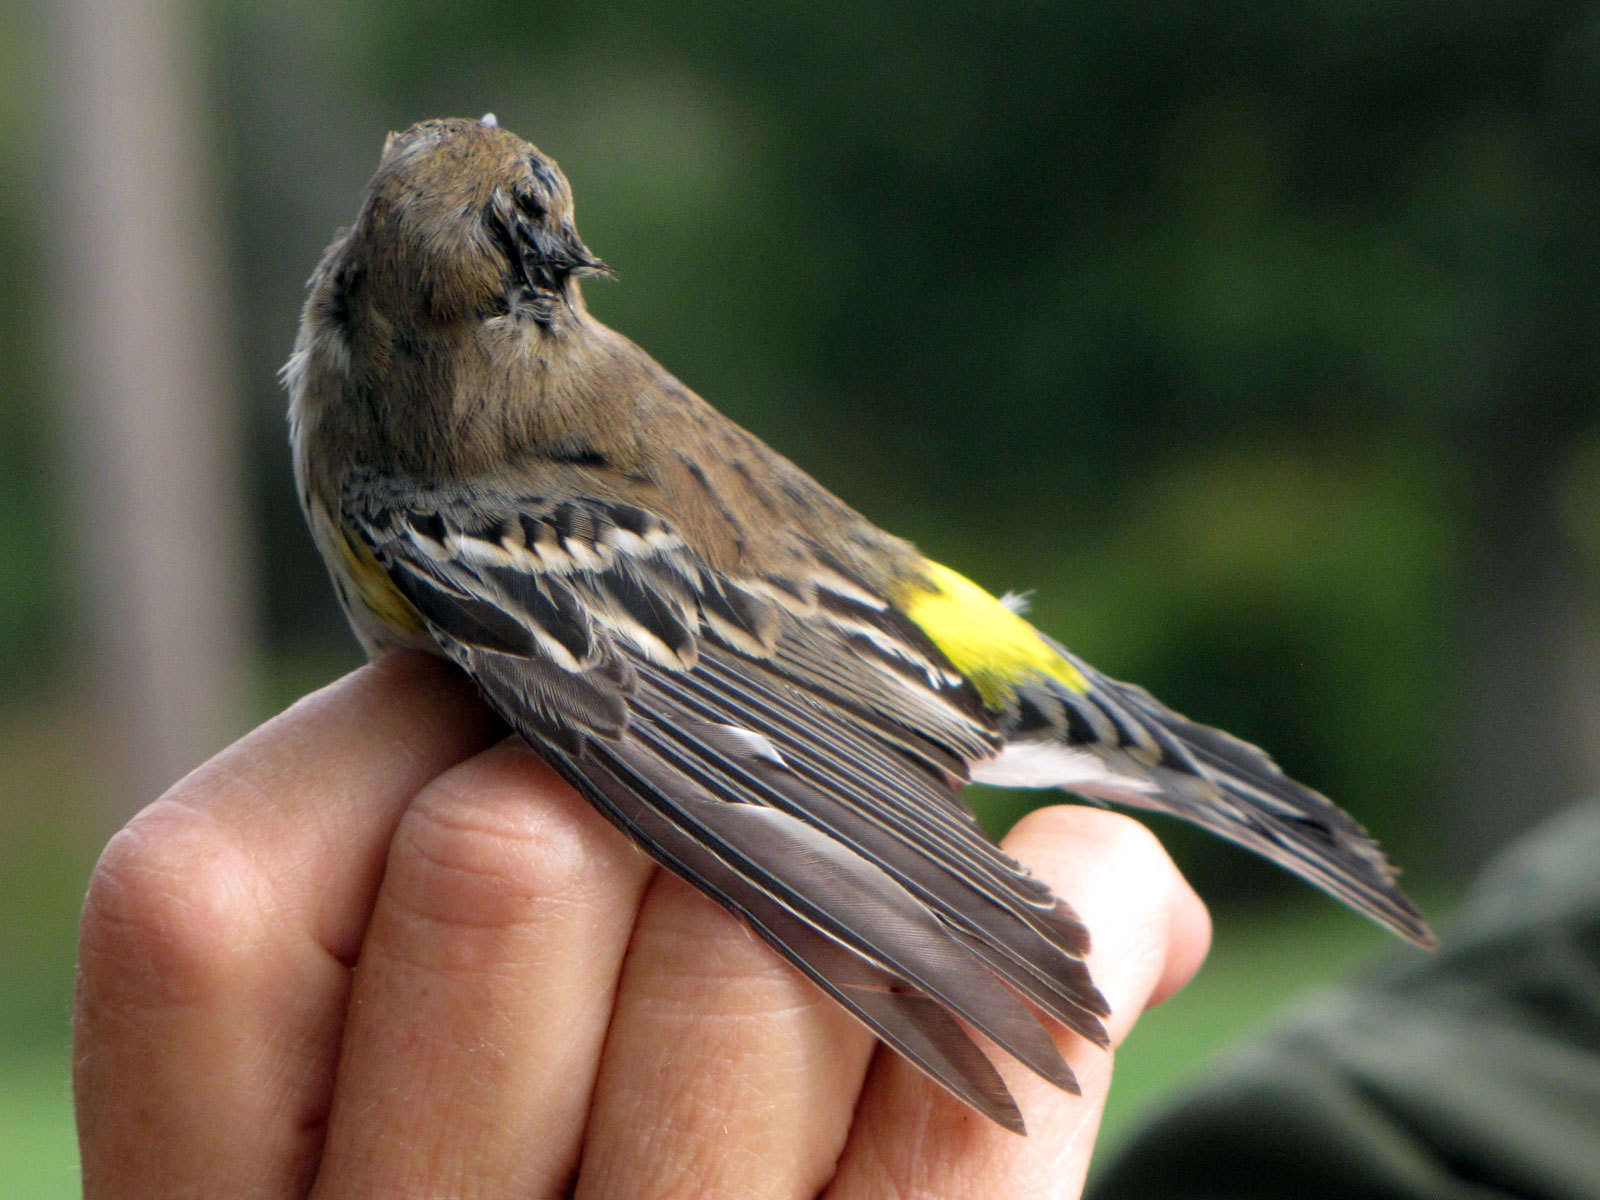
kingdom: Animalia
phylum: Chordata
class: Aves
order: Passeriformes
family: Parulidae
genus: Setophaga
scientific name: Setophaga coronata
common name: Myrtle warbler
